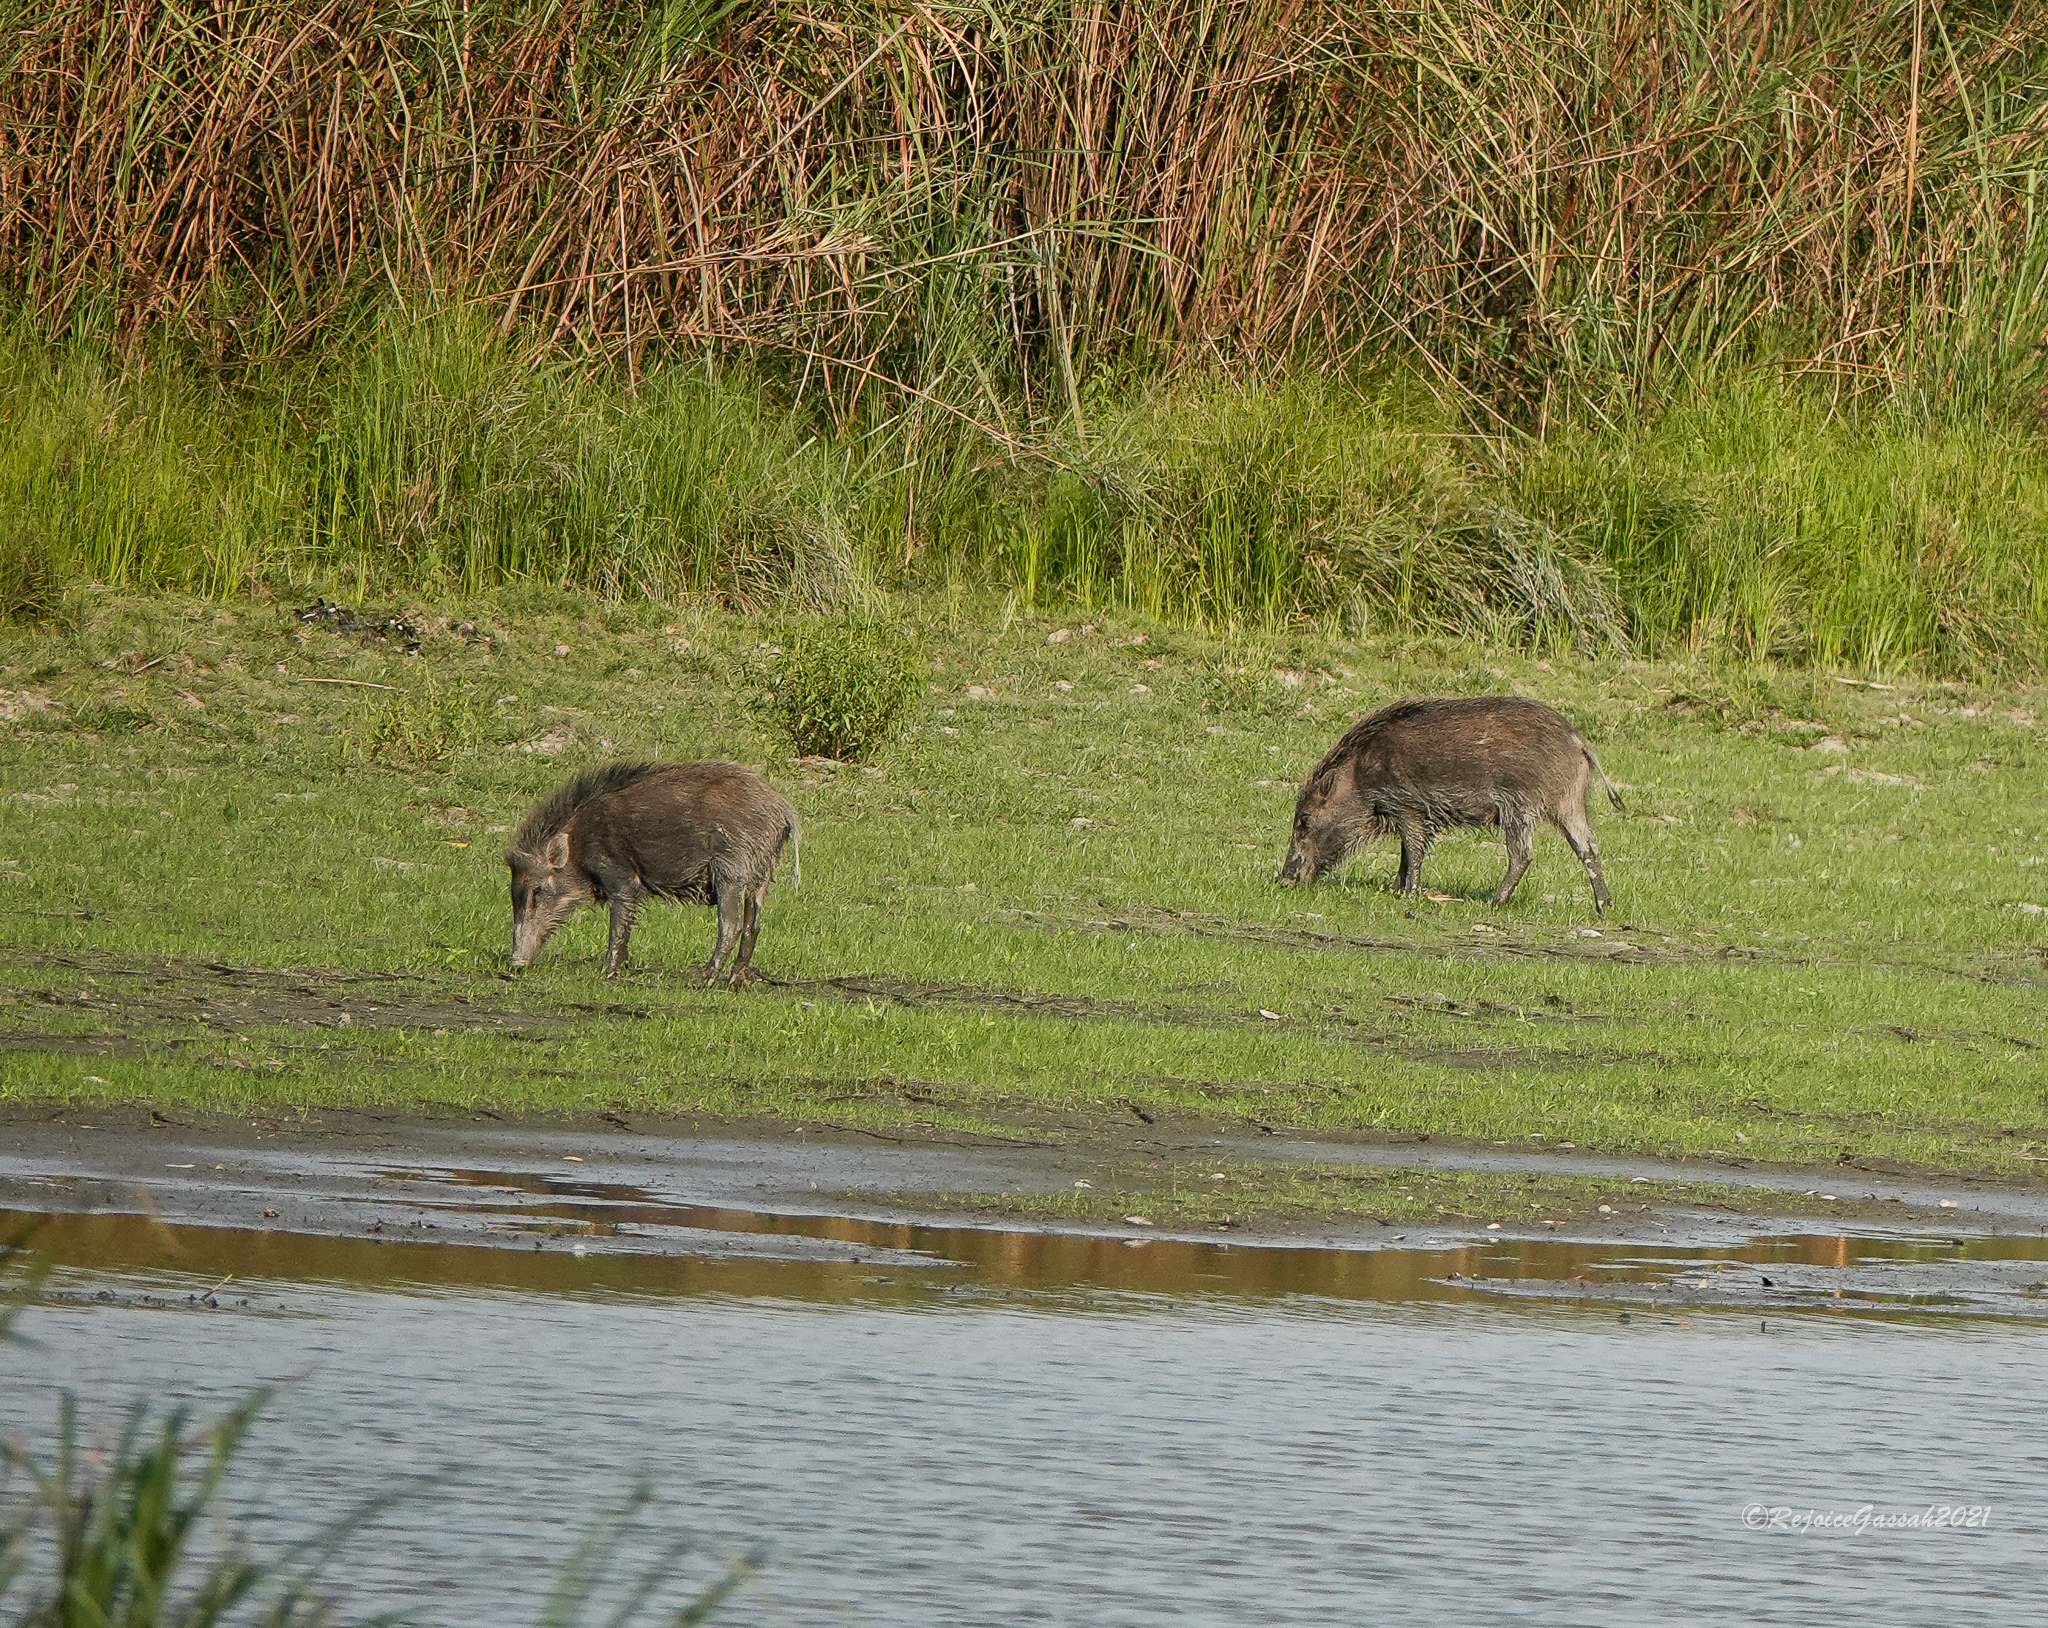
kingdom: Animalia
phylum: Chordata
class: Mammalia
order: Artiodactyla
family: Suidae
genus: Sus
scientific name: Sus scrofa
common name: Wild boar
